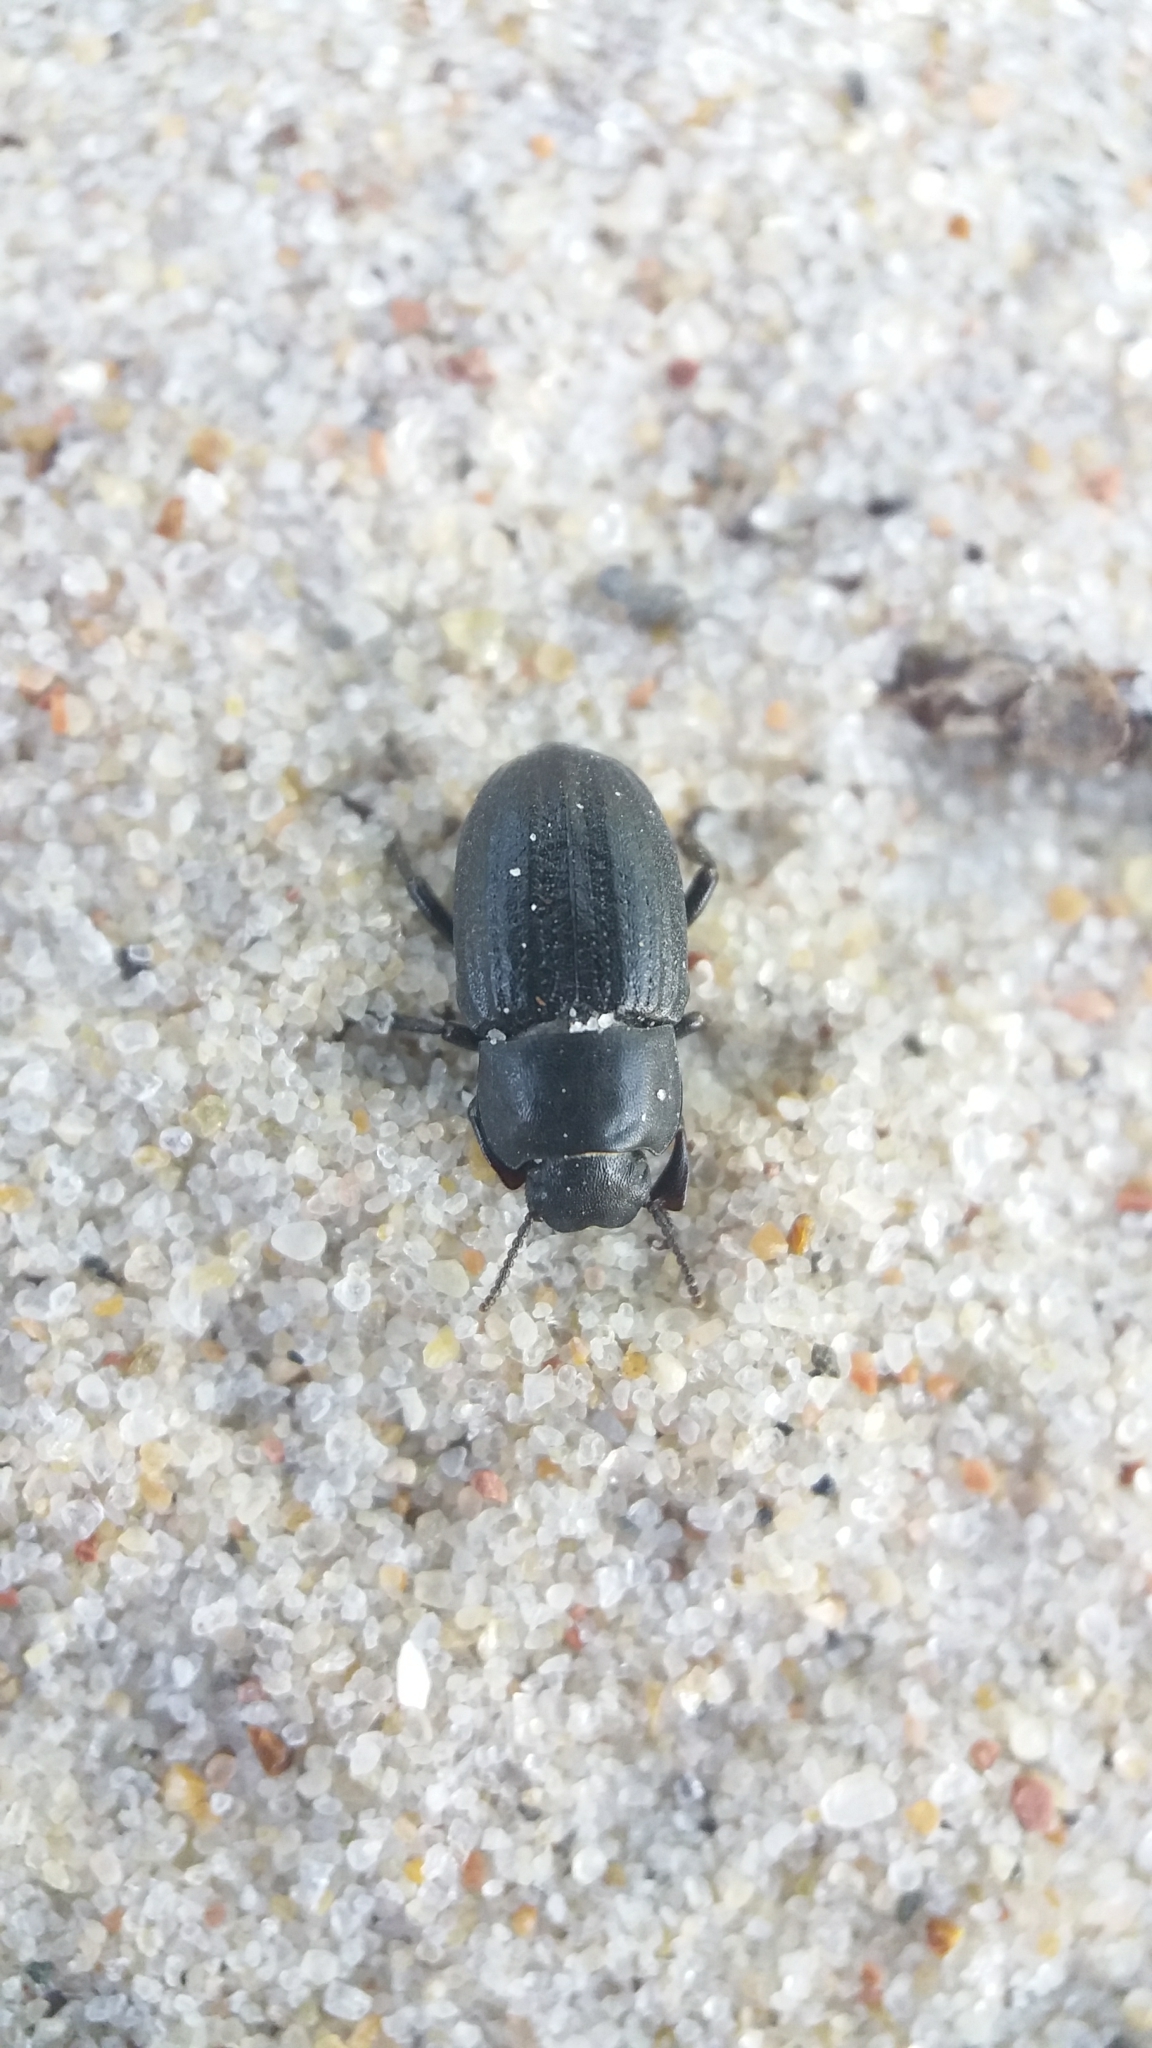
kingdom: Animalia
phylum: Arthropoda
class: Insecta
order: Coleoptera
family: Tenebrionidae
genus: Phylan
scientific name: Phylan gibbus
